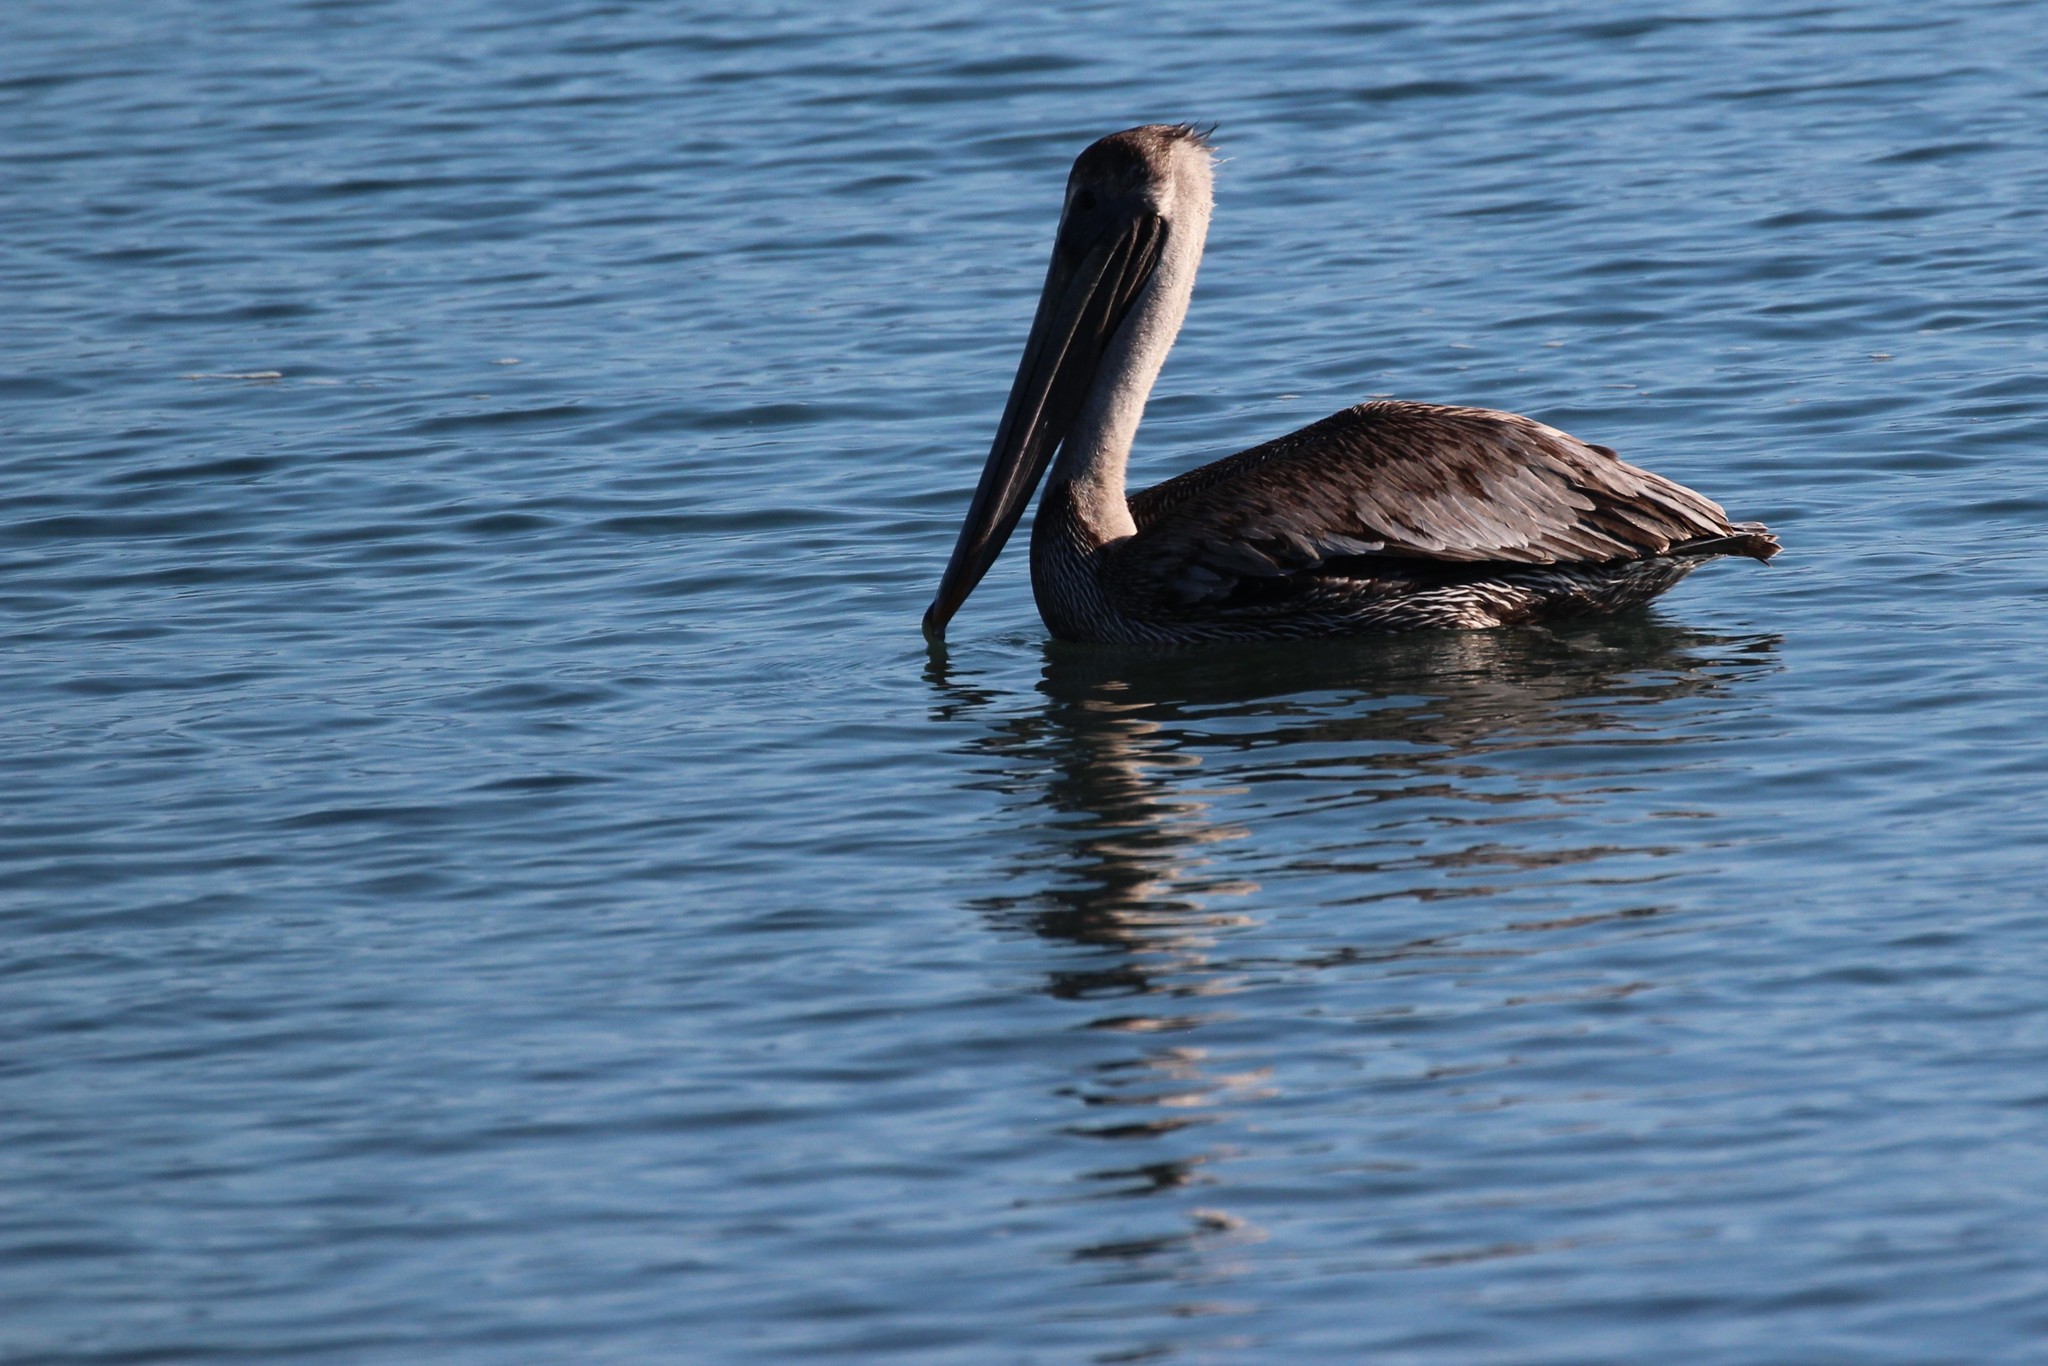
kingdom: Animalia
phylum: Chordata
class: Aves
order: Pelecaniformes
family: Pelecanidae
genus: Pelecanus
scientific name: Pelecanus occidentalis
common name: Brown pelican
